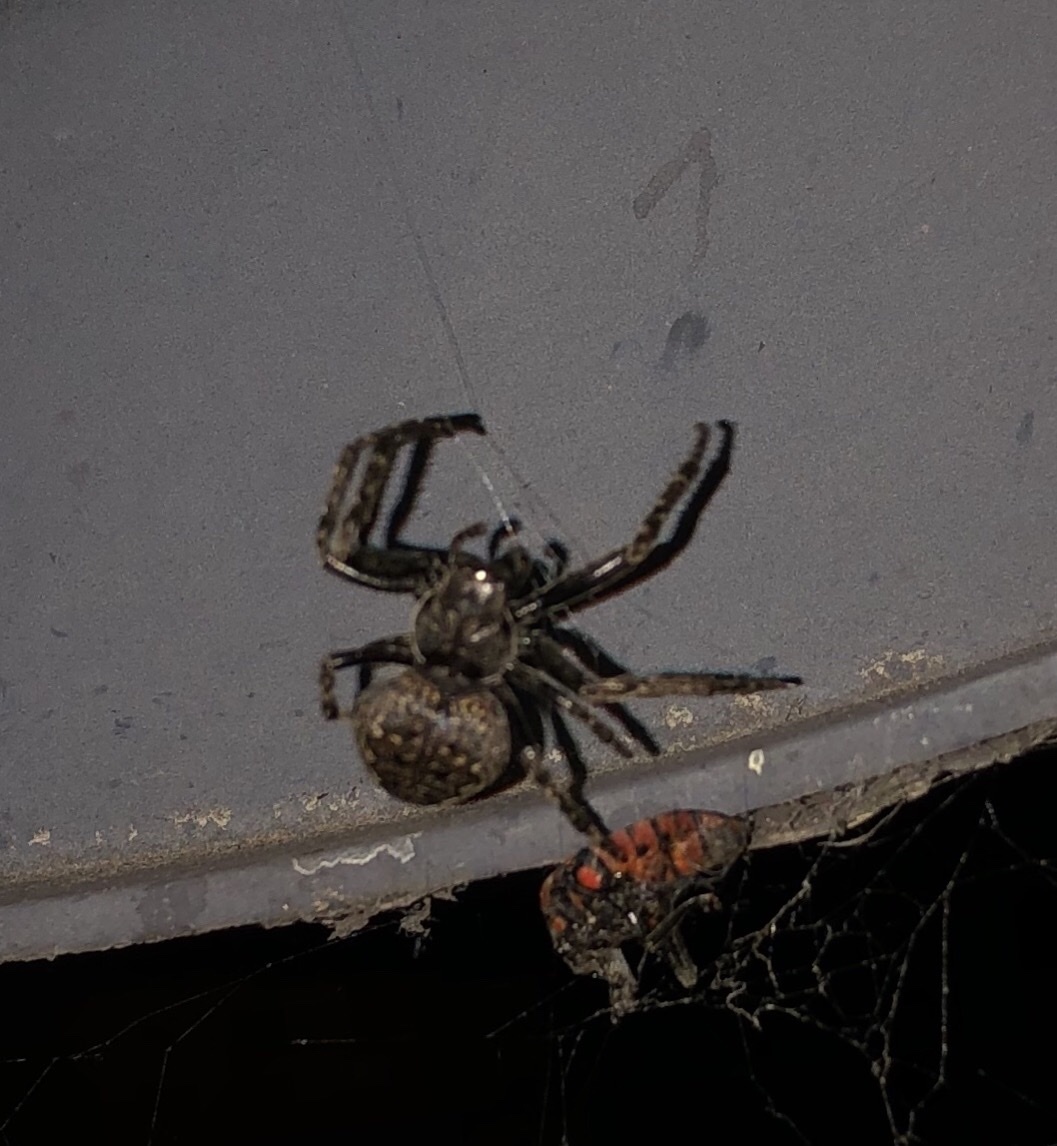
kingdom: Animalia
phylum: Arthropoda
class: Arachnida
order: Araneae
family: Araneidae
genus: Nuctenea
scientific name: Nuctenea umbratica
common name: Toad spider
